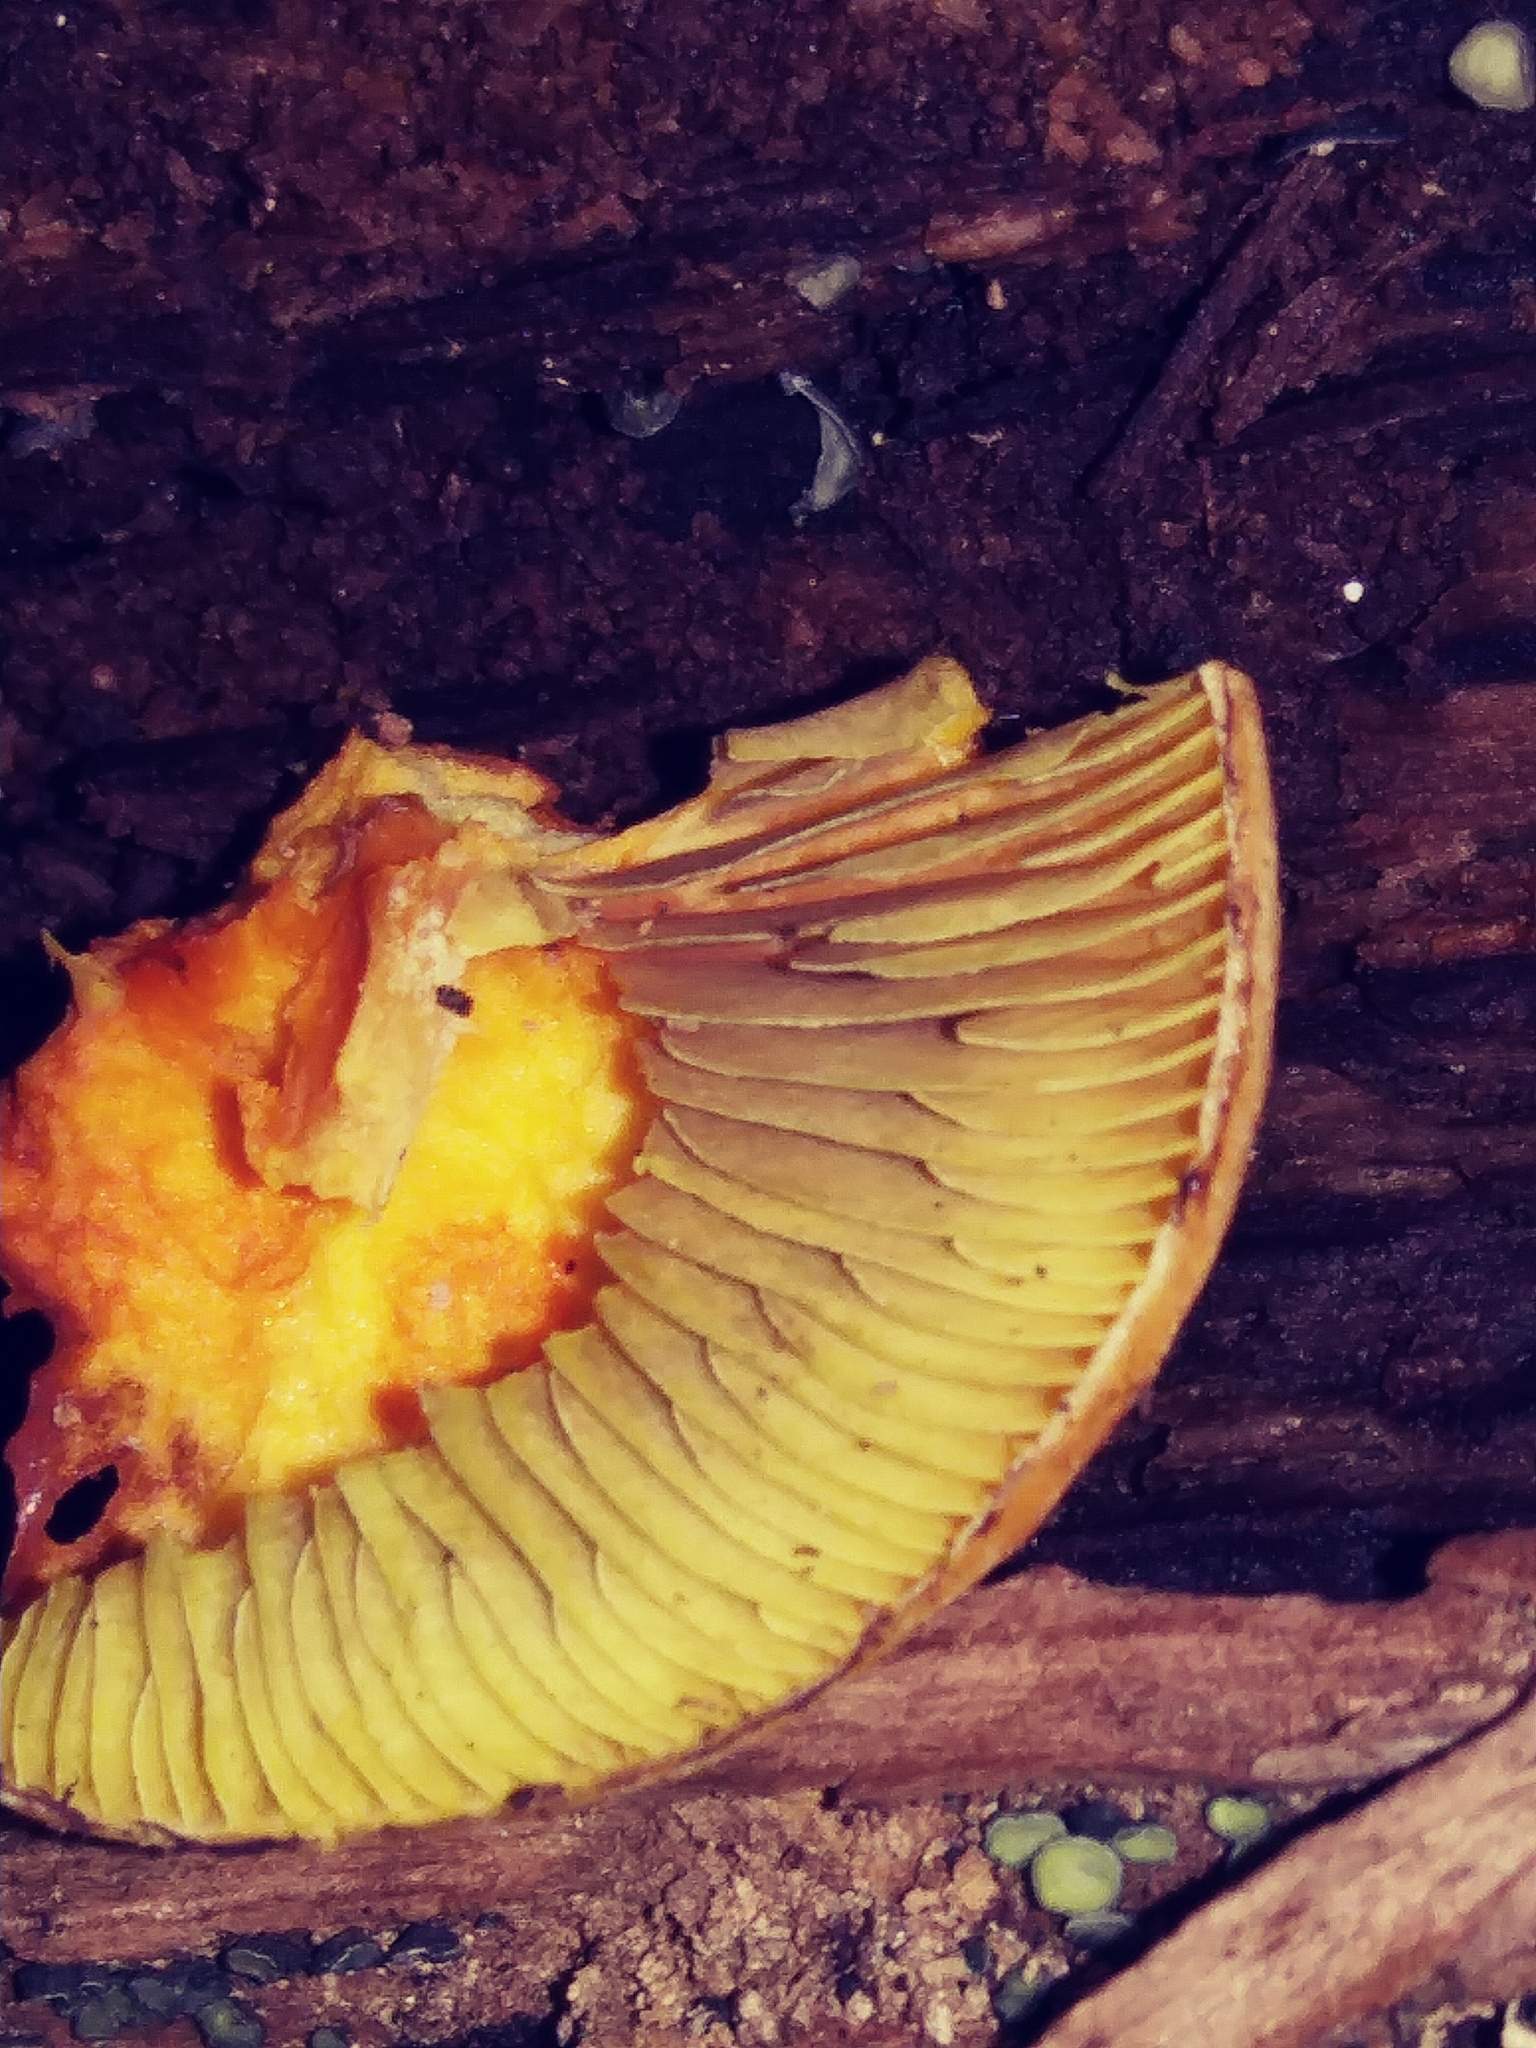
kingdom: Fungi
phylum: Basidiomycota
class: Agaricomycetes
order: Agaricales
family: Strophariaceae
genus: Hypholoma
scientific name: Hypholoma lateritium
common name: Brick caps
